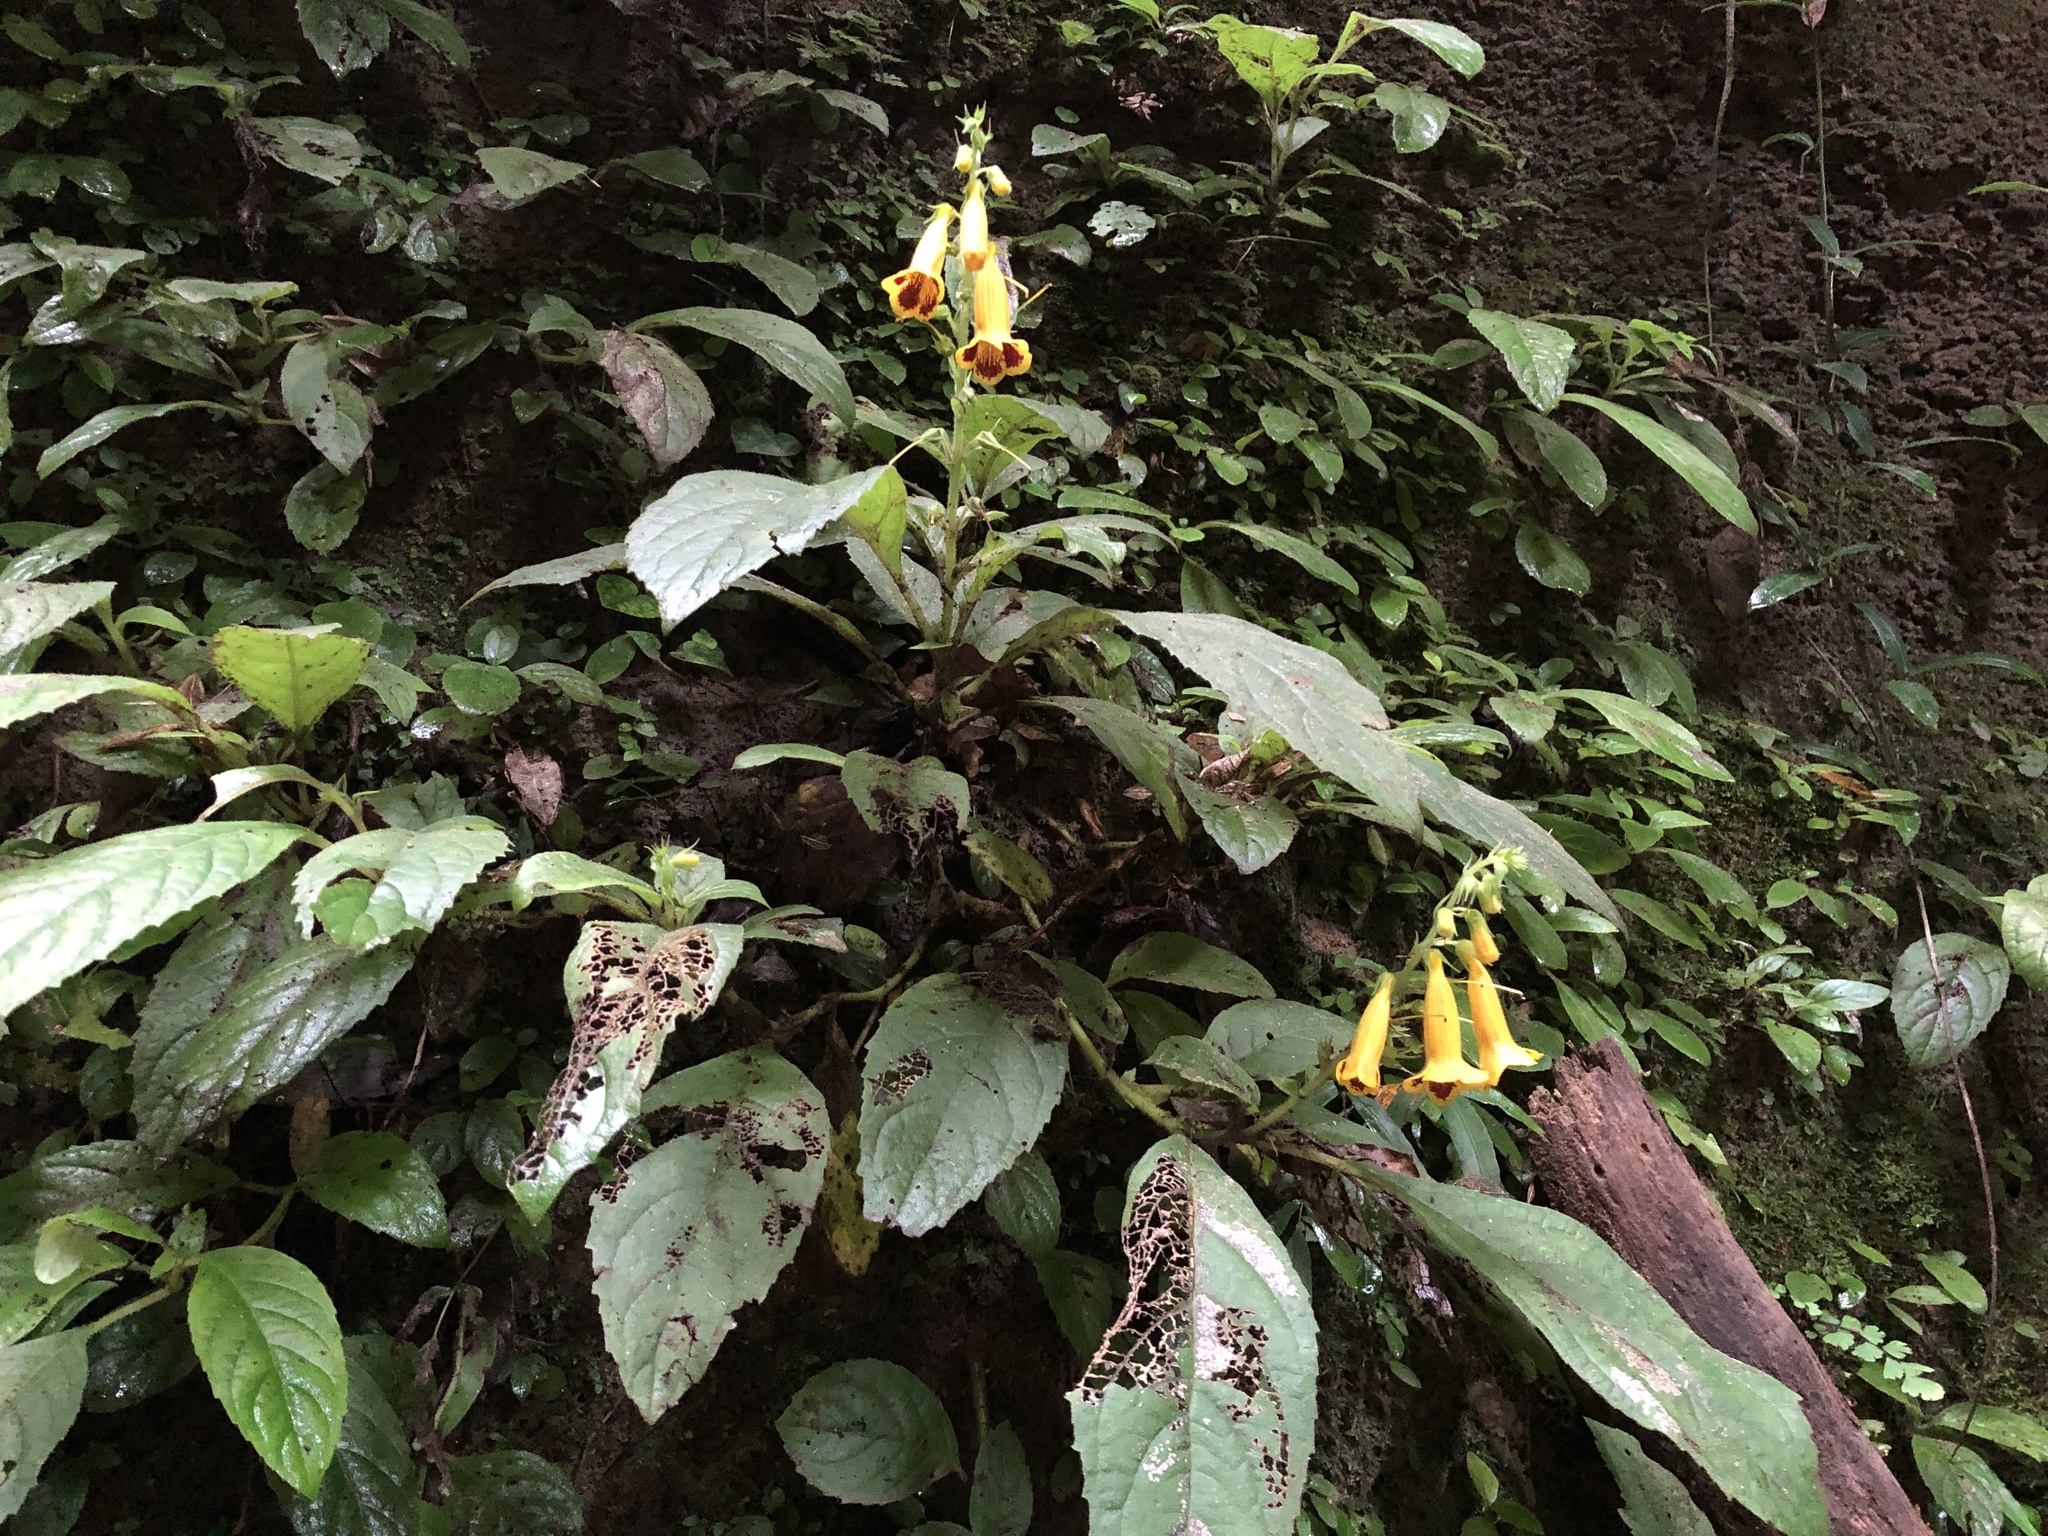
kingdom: Plantae
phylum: Tracheophyta
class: Magnoliopsida
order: Lamiales
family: Gesneriaceae
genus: Titanotrichum
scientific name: Titanotrichum oldhamii
